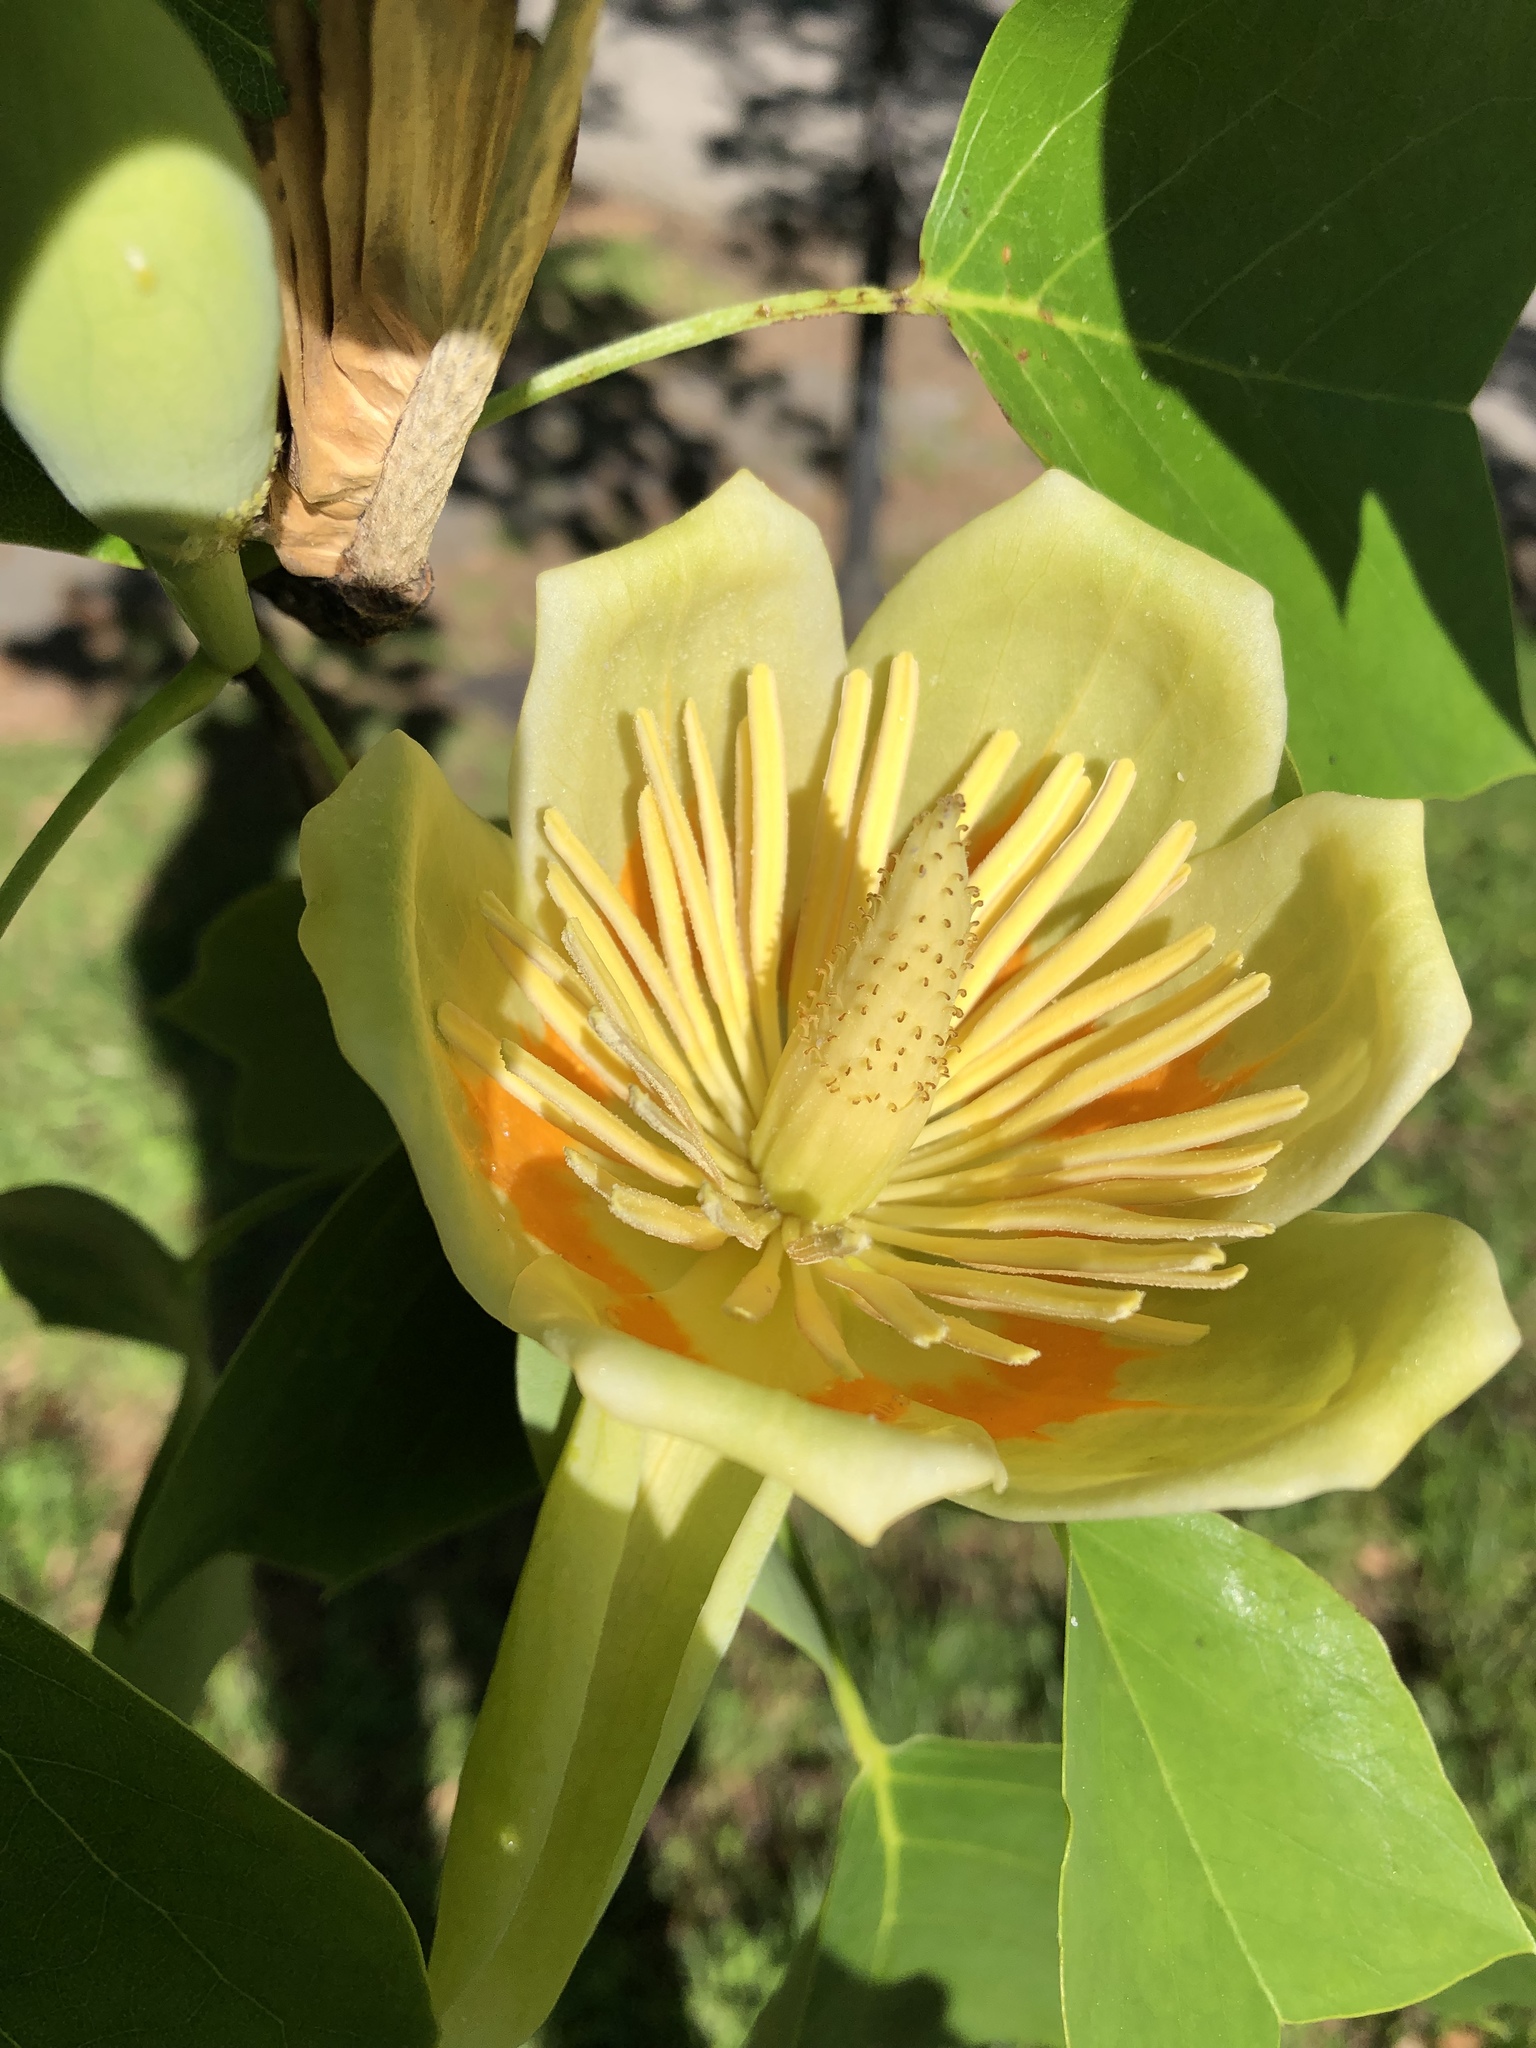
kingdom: Plantae
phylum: Tracheophyta
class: Magnoliopsida
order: Magnoliales
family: Magnoliaceae
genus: Liriodendron
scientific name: Liriodendron tulipifera
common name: Tulip tree
